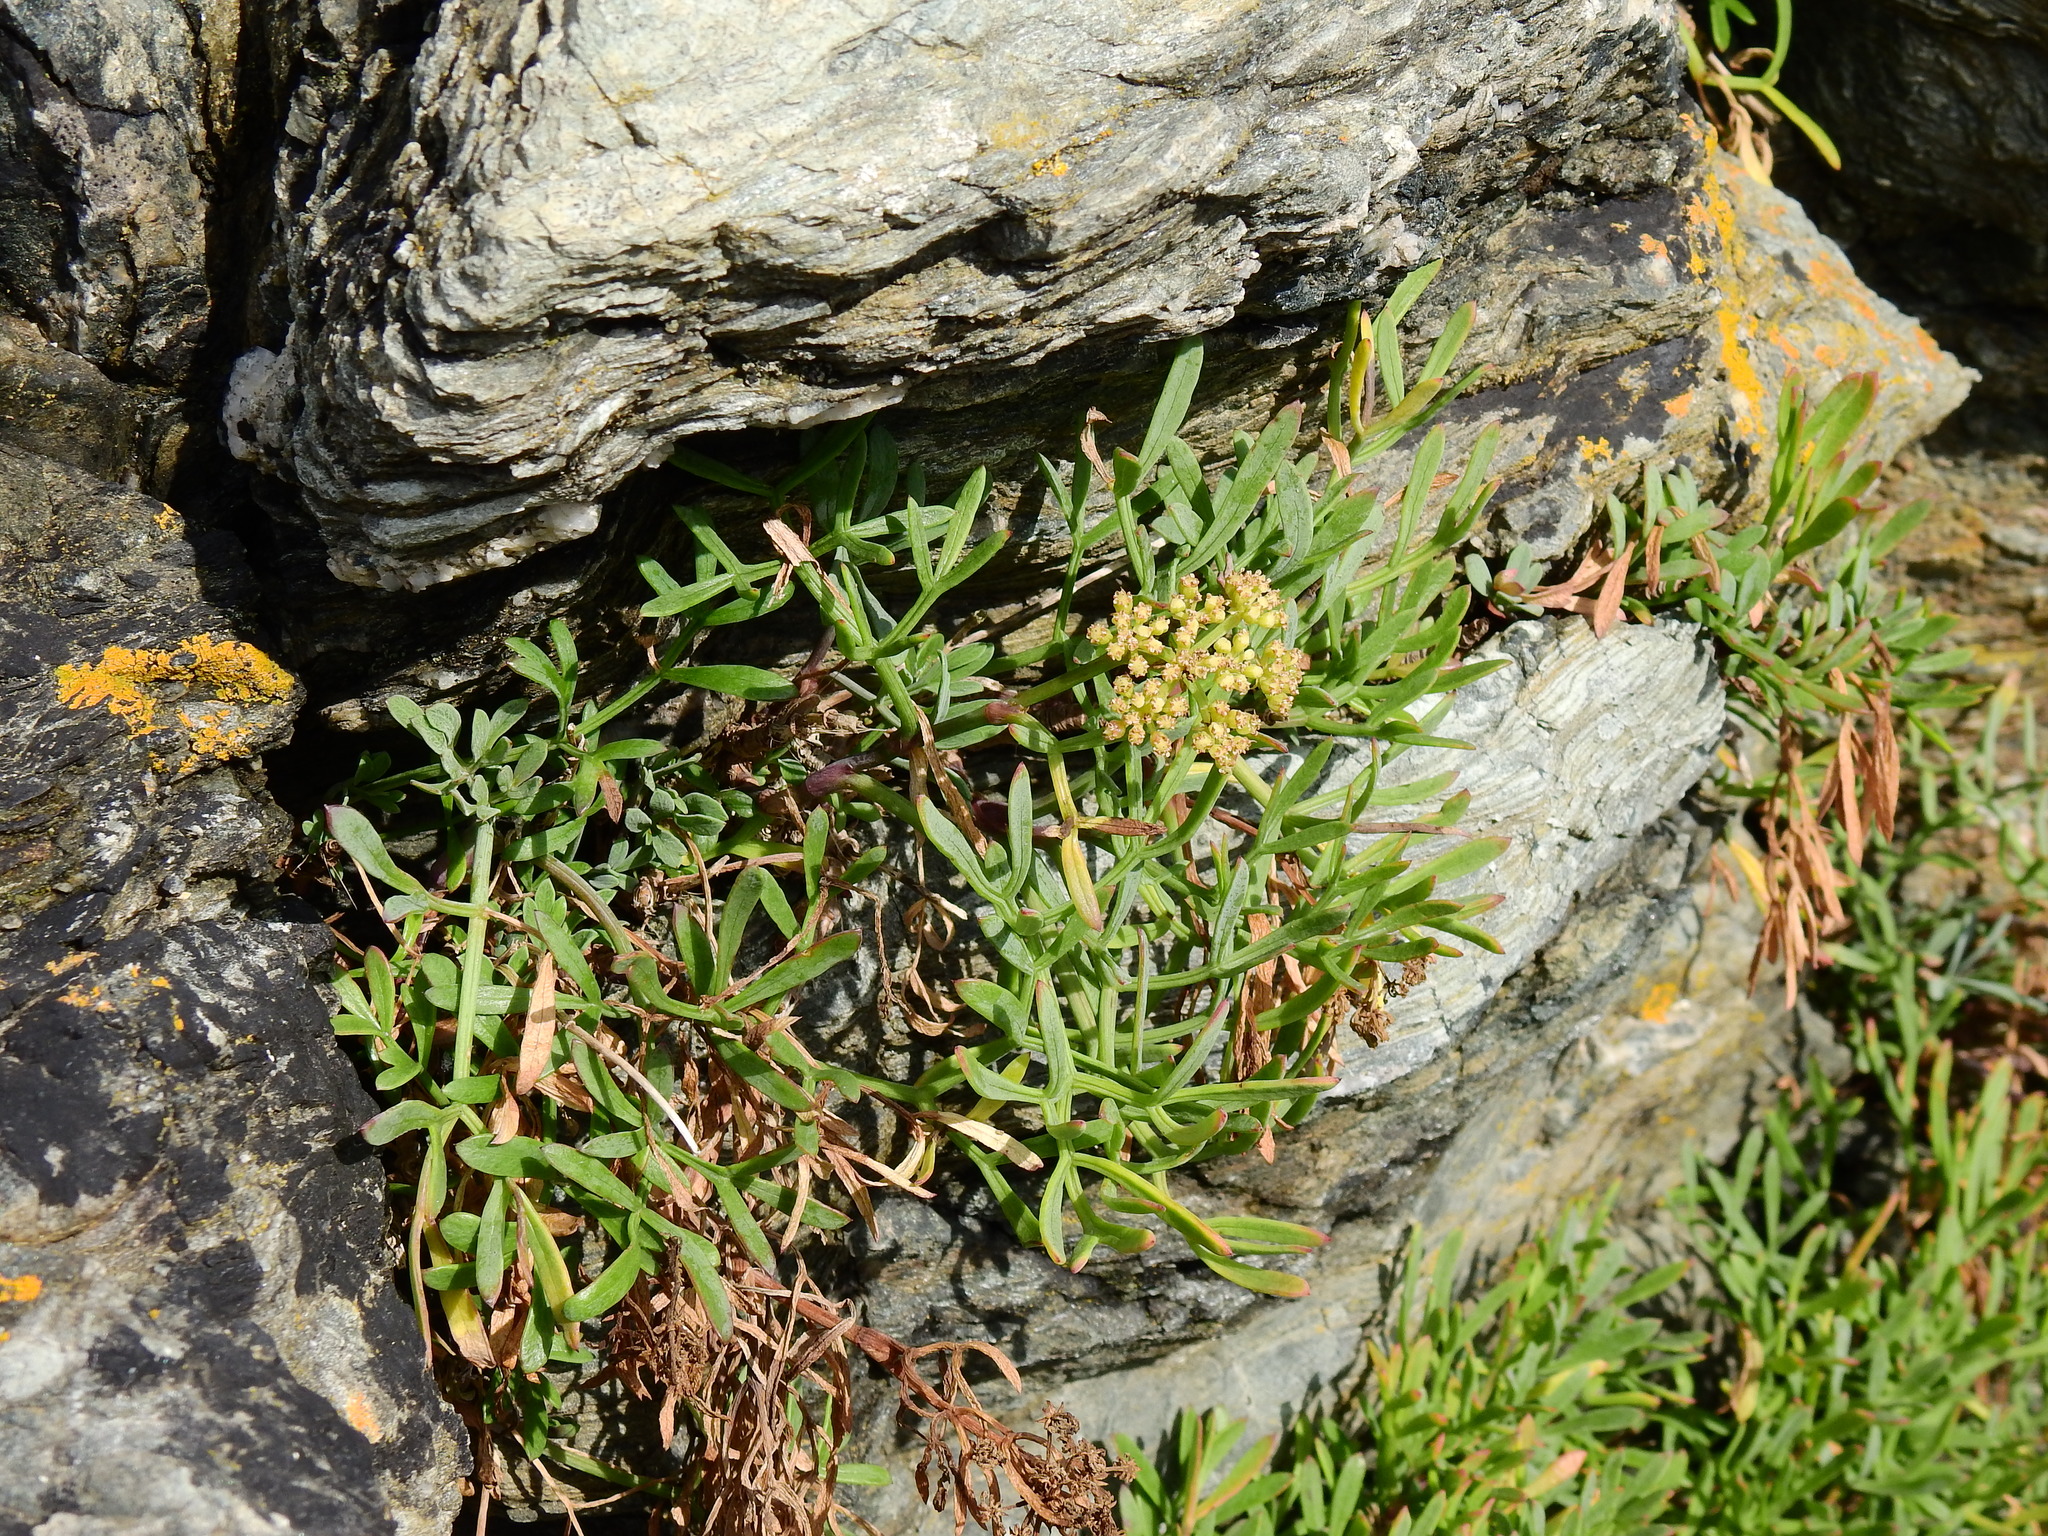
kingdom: Plantae
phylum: Tracheophyta
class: Magnoliopsida
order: Apiales
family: Apiaceae
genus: Crithmum
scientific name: Crithmum maritimum
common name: Rock samphire
